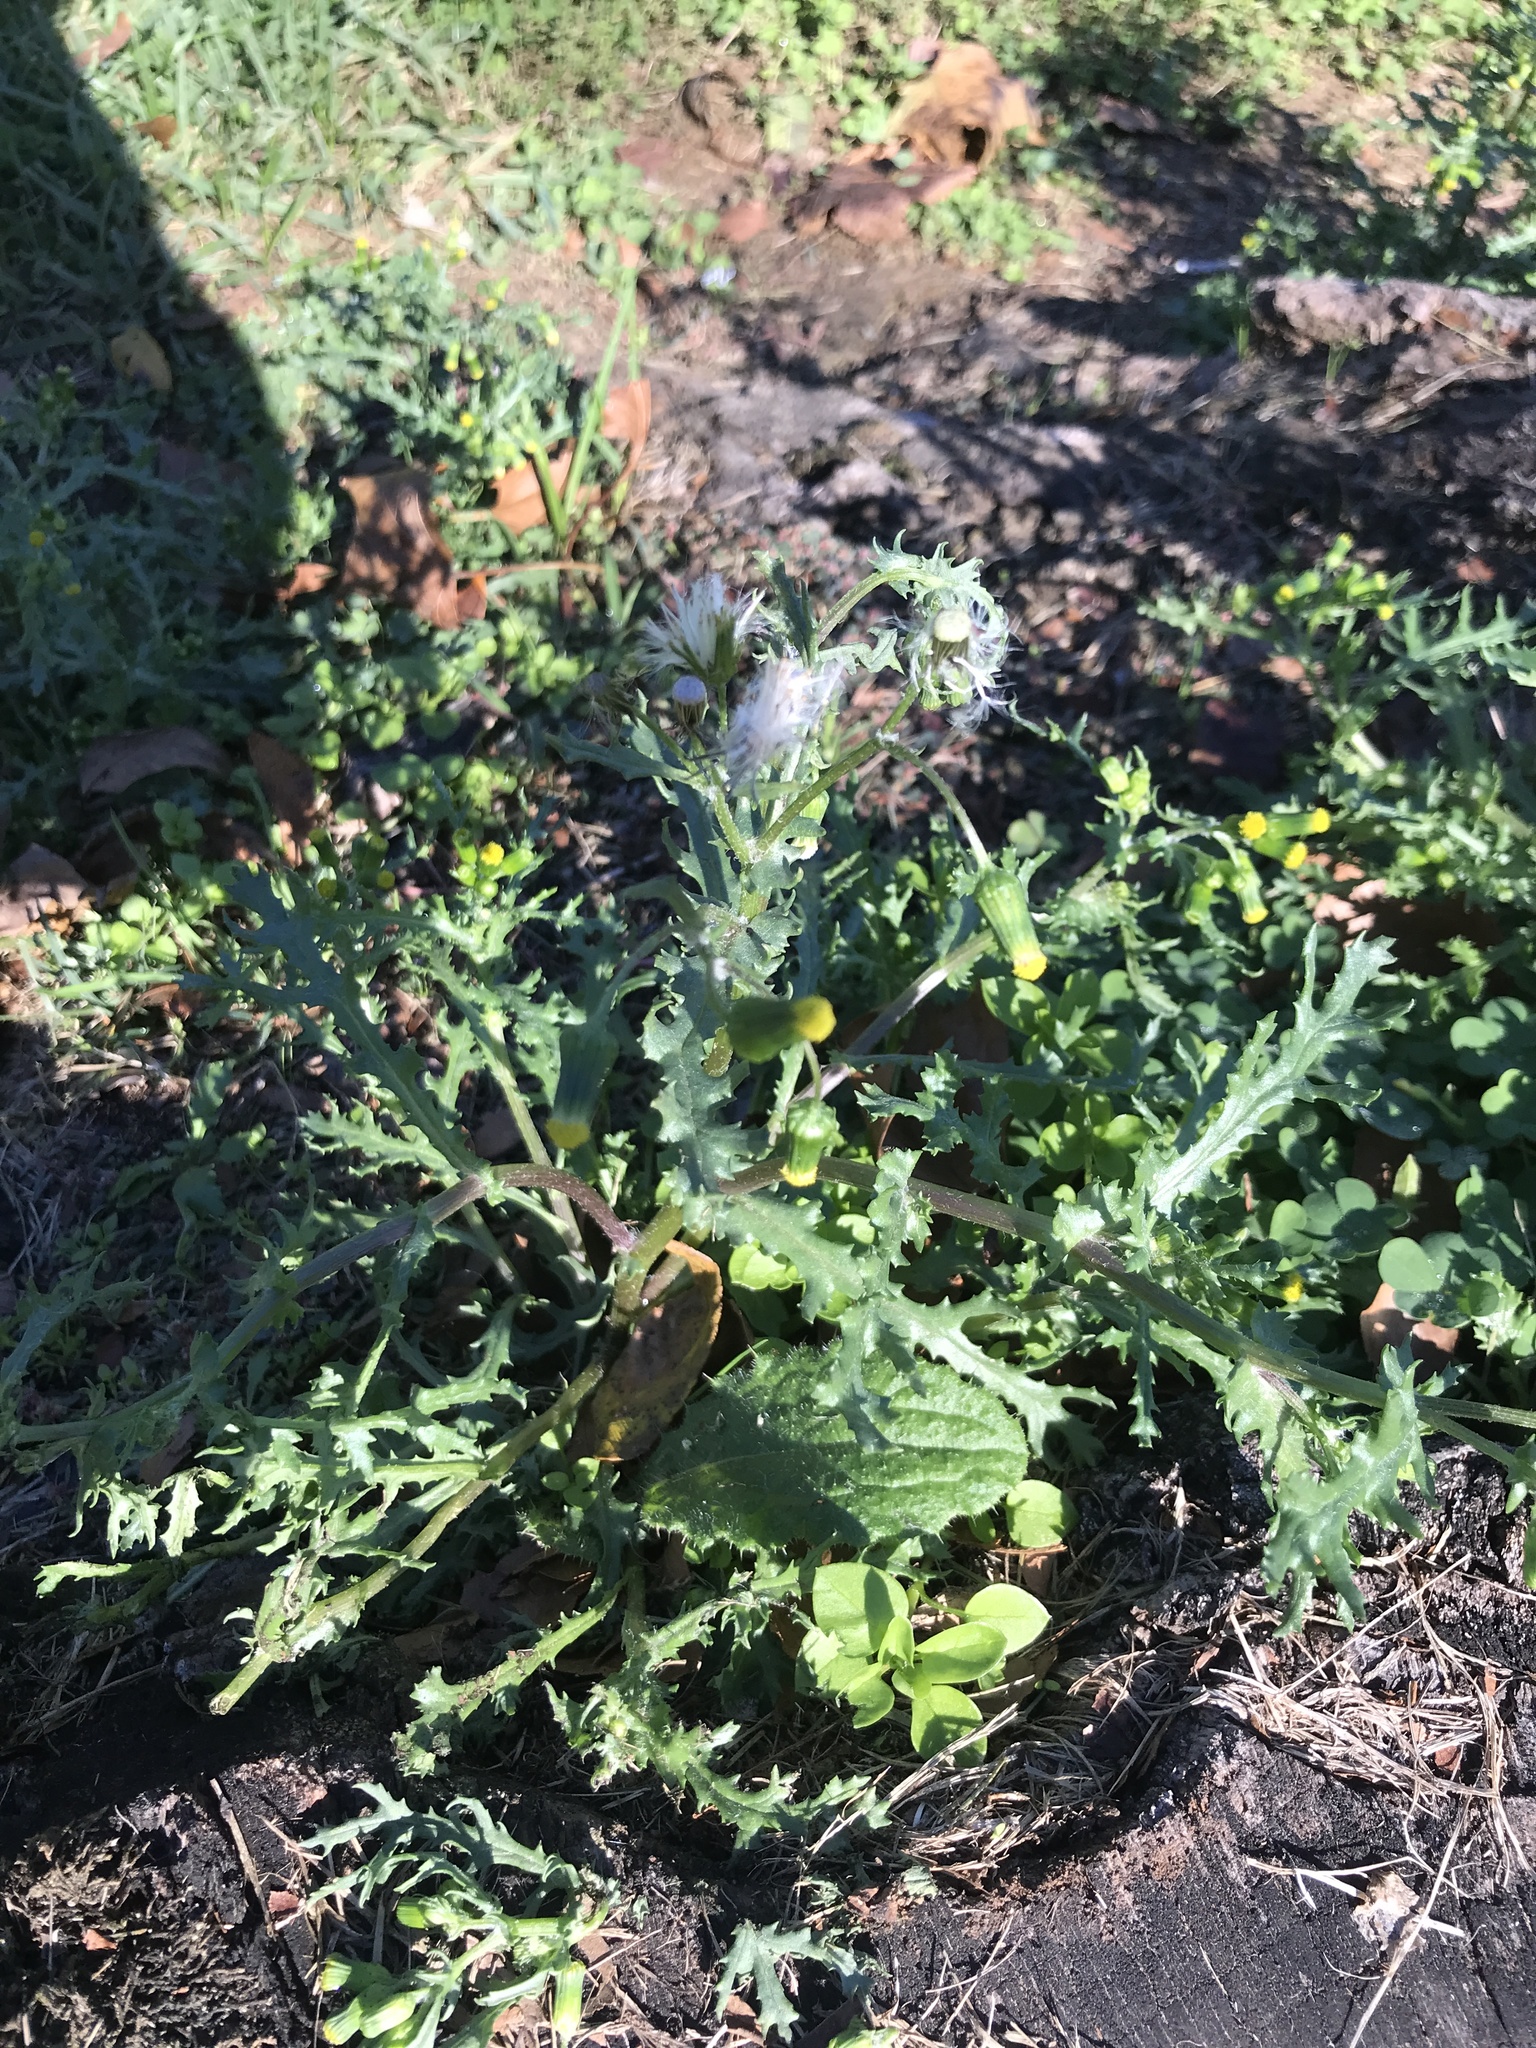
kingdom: Plantae
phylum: Tracheophyta
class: Magnoliopsida
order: Asterales
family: Asteraceae
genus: Senecio
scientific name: Senecio vulgaris
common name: Old-man-in-the-spring
